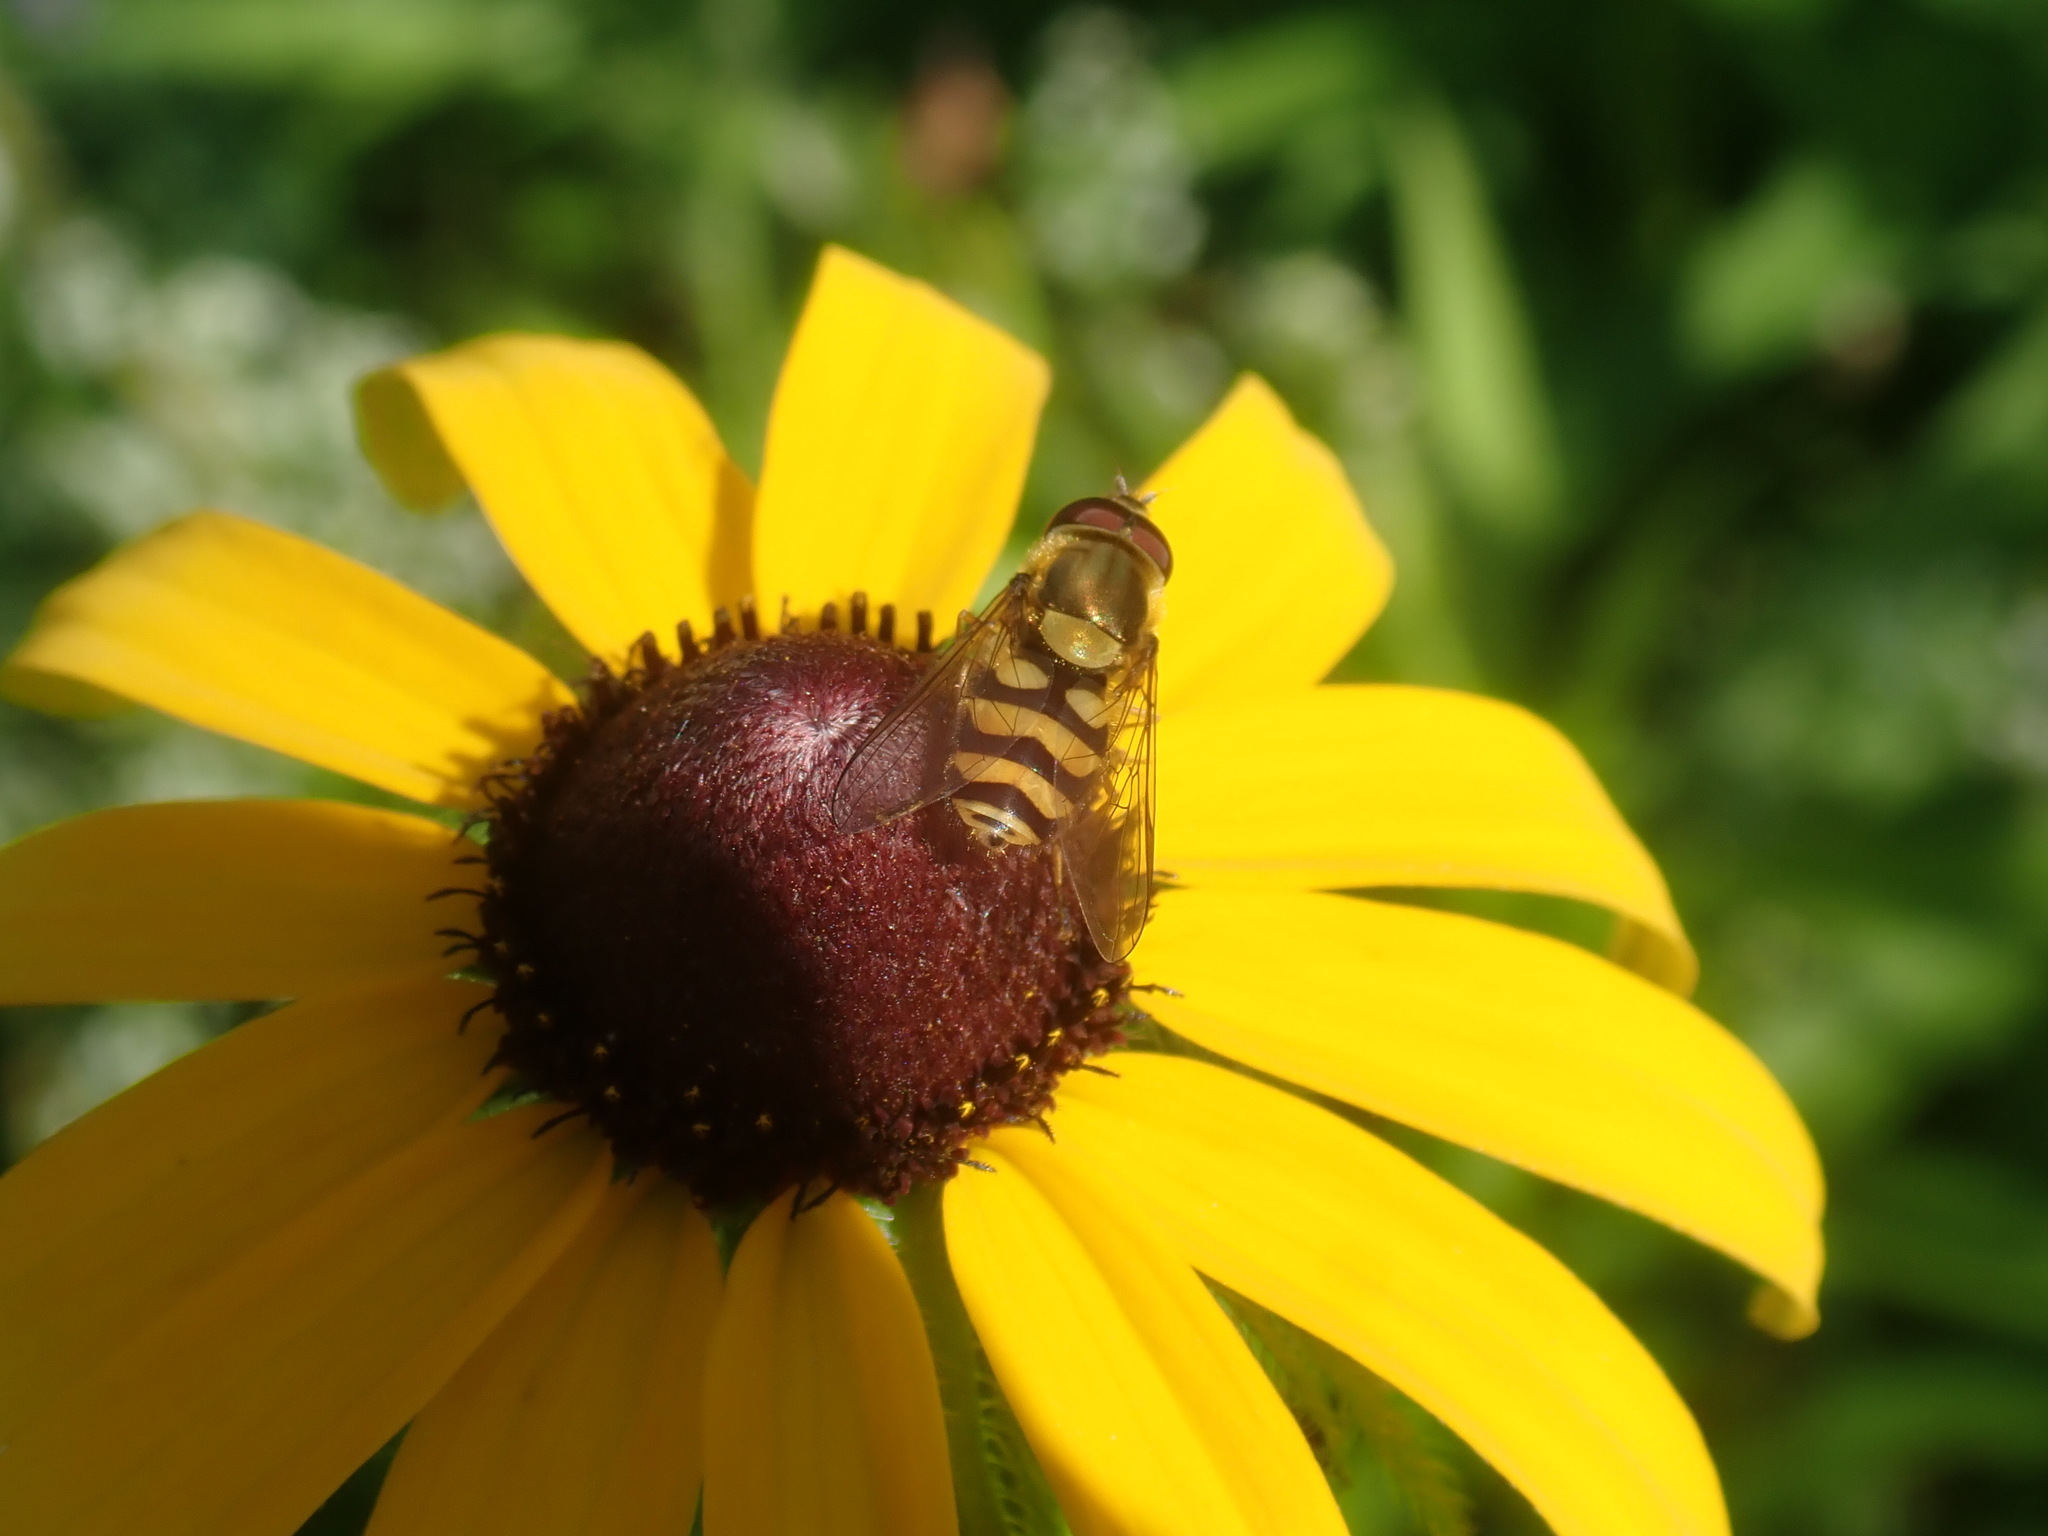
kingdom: Animalia
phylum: Arthropoda
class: Insecta
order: Diptera
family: Syrphidae
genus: Syrphus
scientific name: Syrphus
